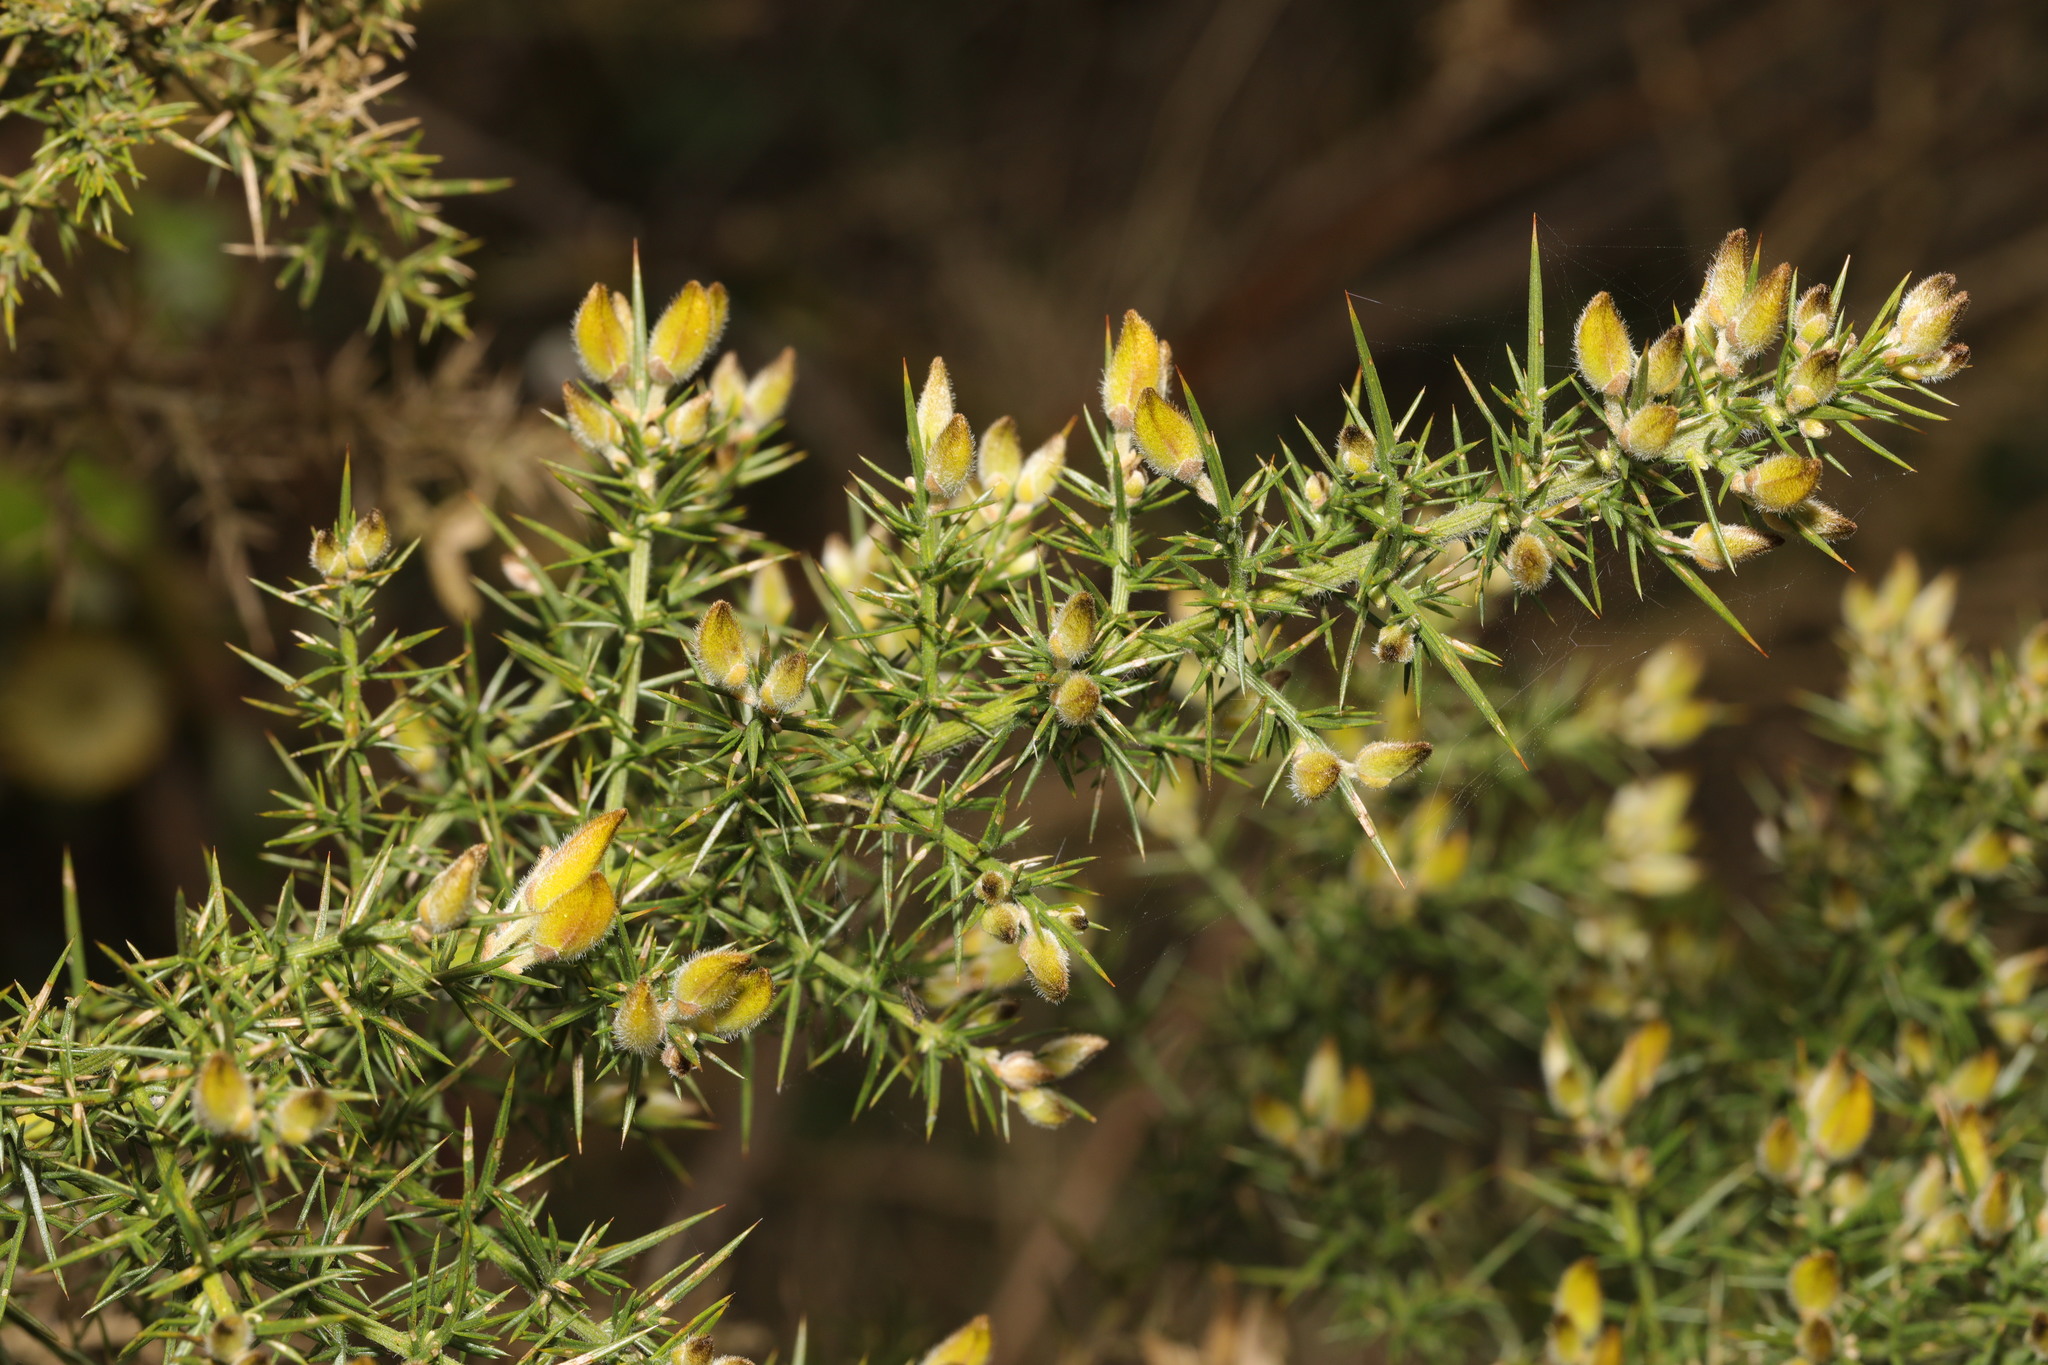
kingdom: Plantae
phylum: Tracheophyta
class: Magnoliopsida
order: Fabales
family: Fabaceae
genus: Ulex
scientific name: Ulex europaeus
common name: Common gorse
